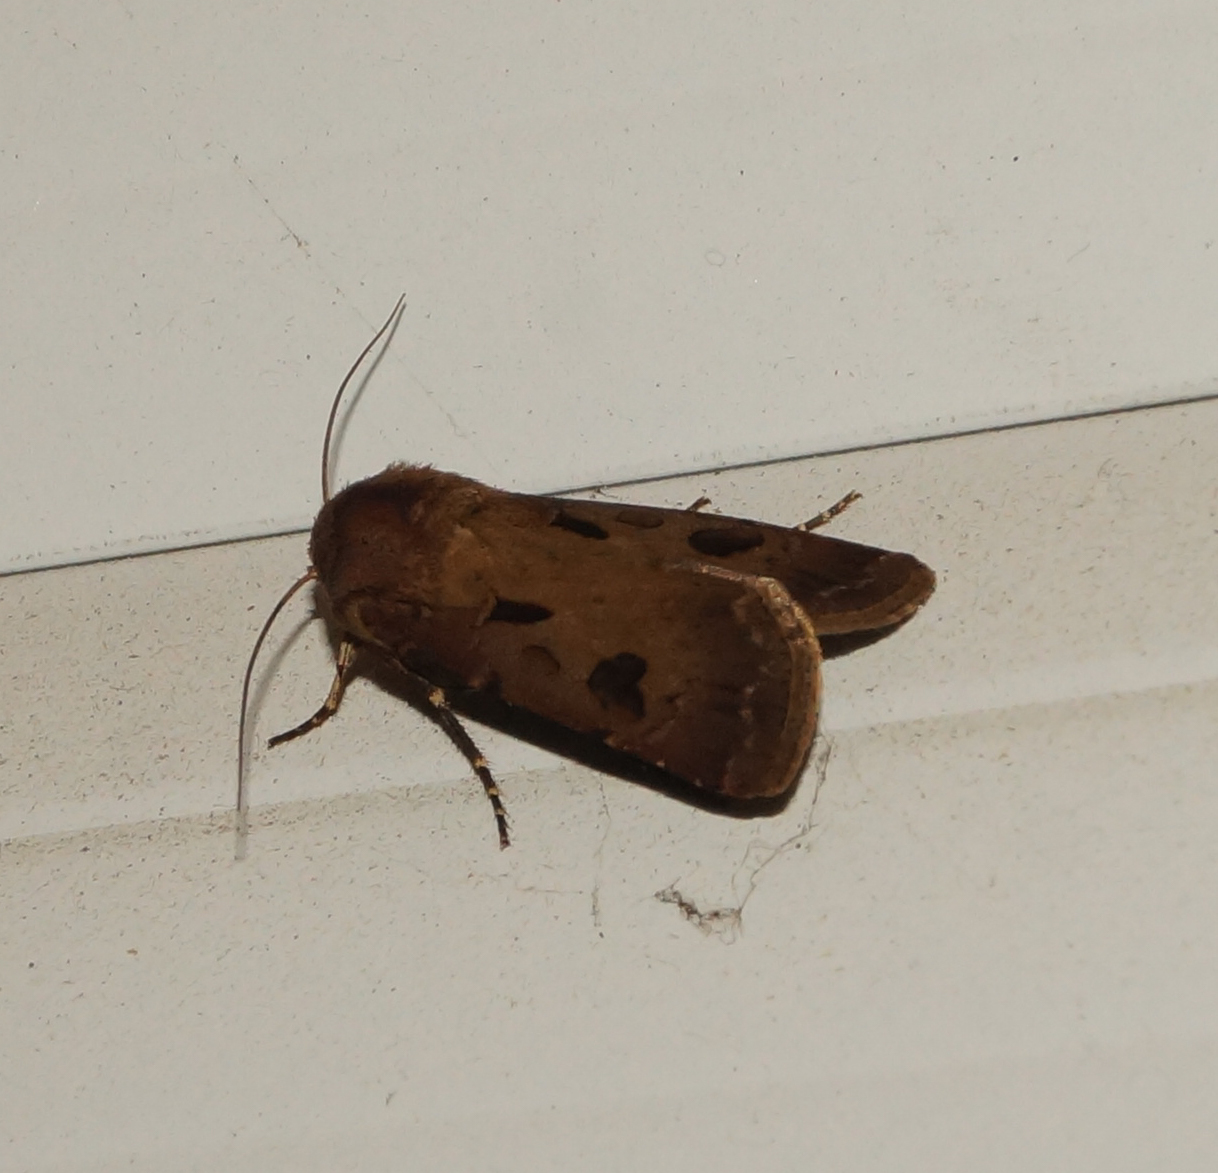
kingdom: Animalia
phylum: Arthropoda
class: Insecta
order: Lepidoptera
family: Noctuidae
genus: Agrotis
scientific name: Agrotis exclamationis
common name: Heart and dart
